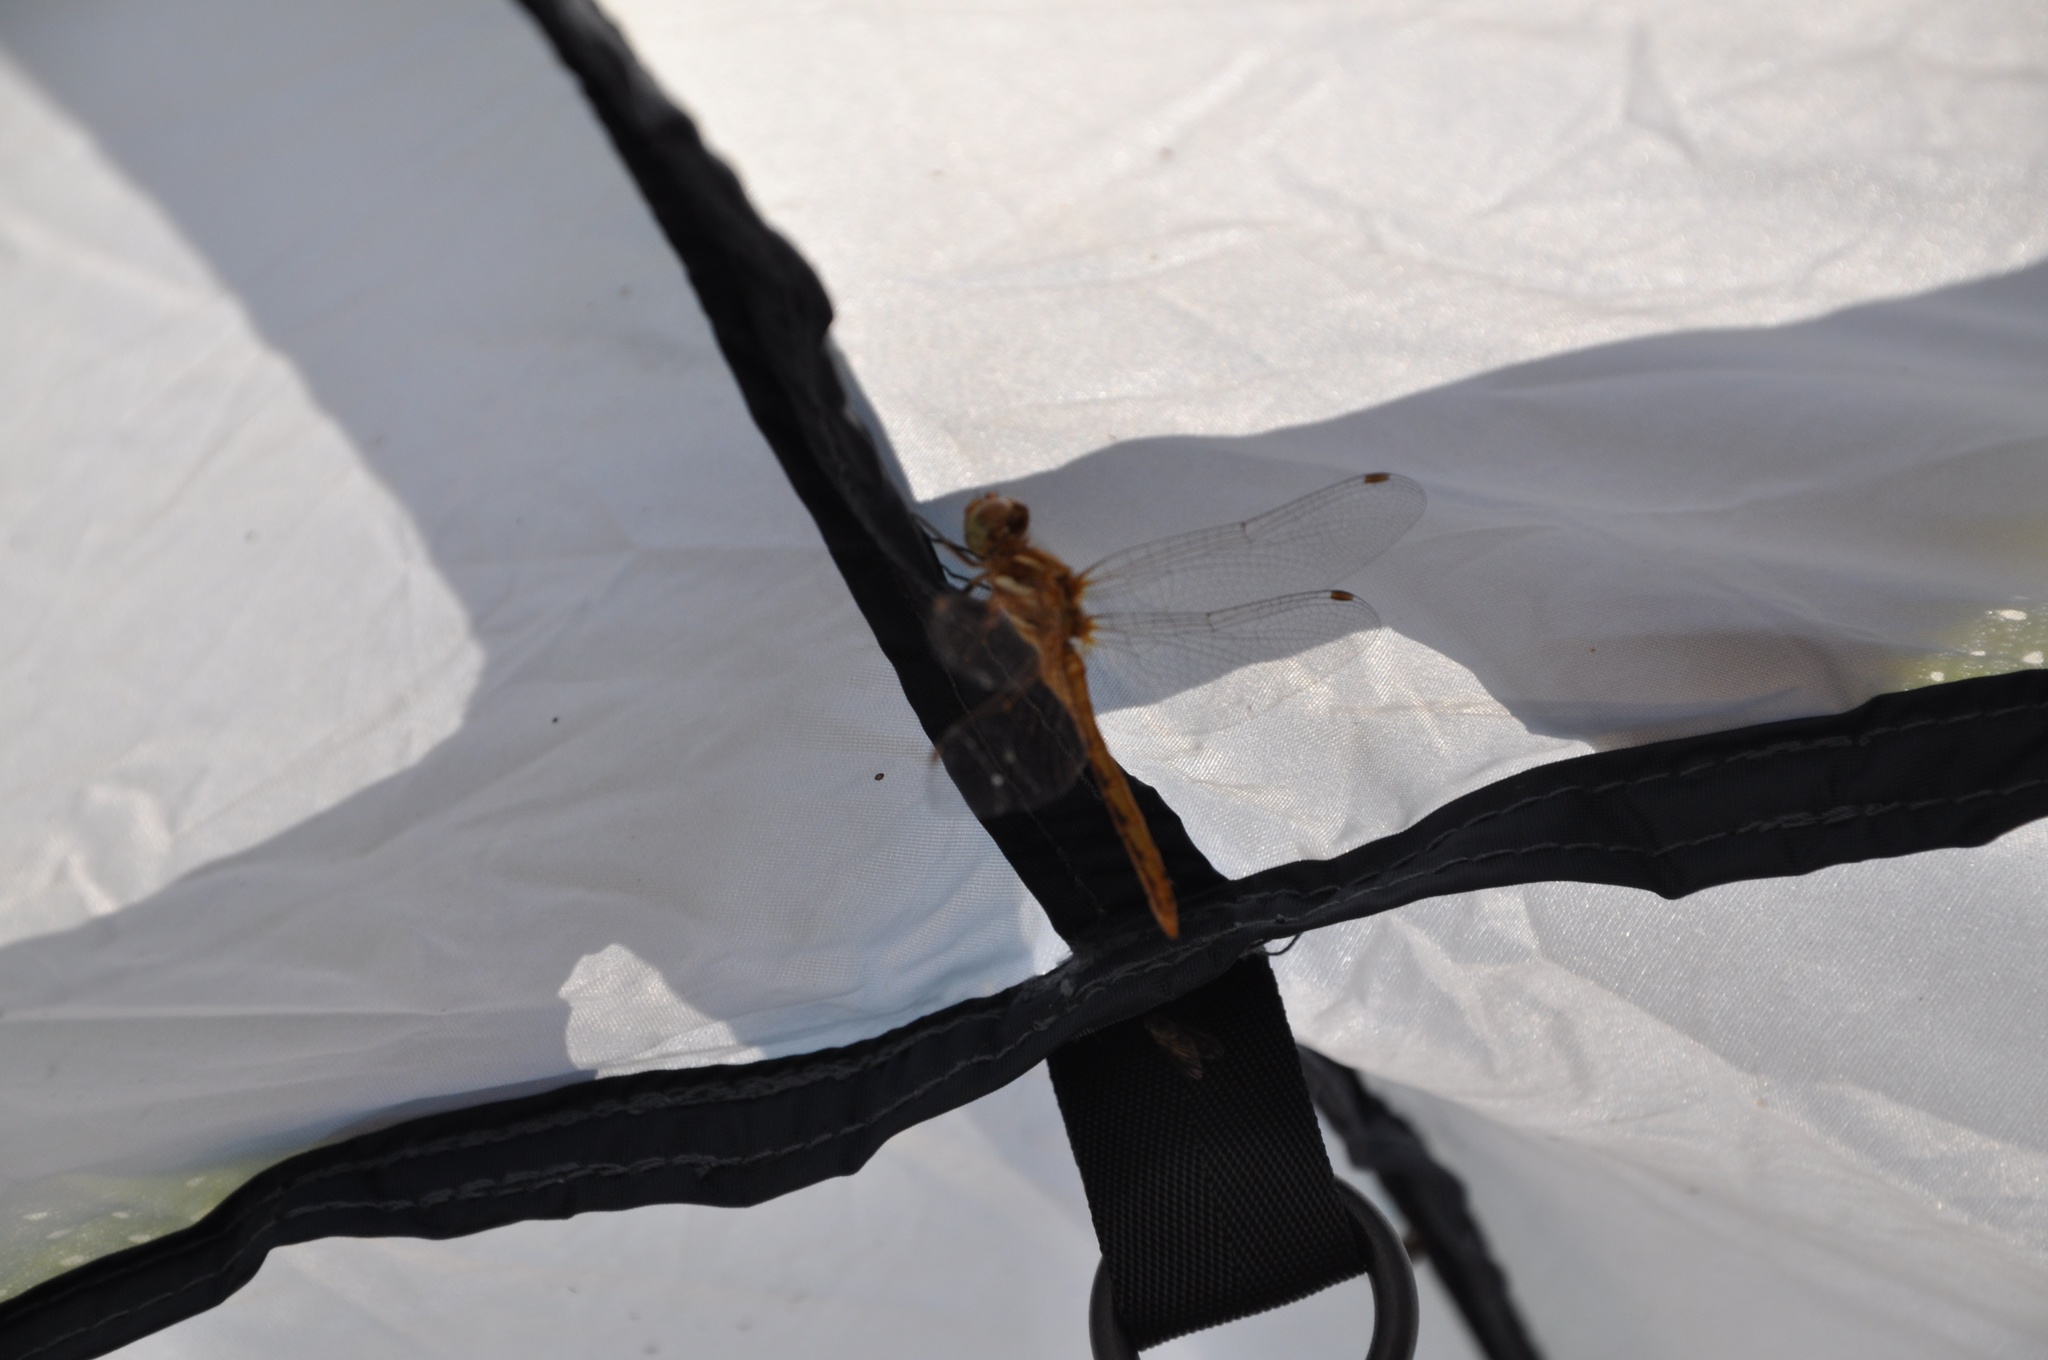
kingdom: Animalia
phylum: Arthropoda
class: Insecta
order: Odonata
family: Libellulidae
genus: Sympetrum
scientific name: Sympetrum pallipes
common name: Striped meadowhawk
